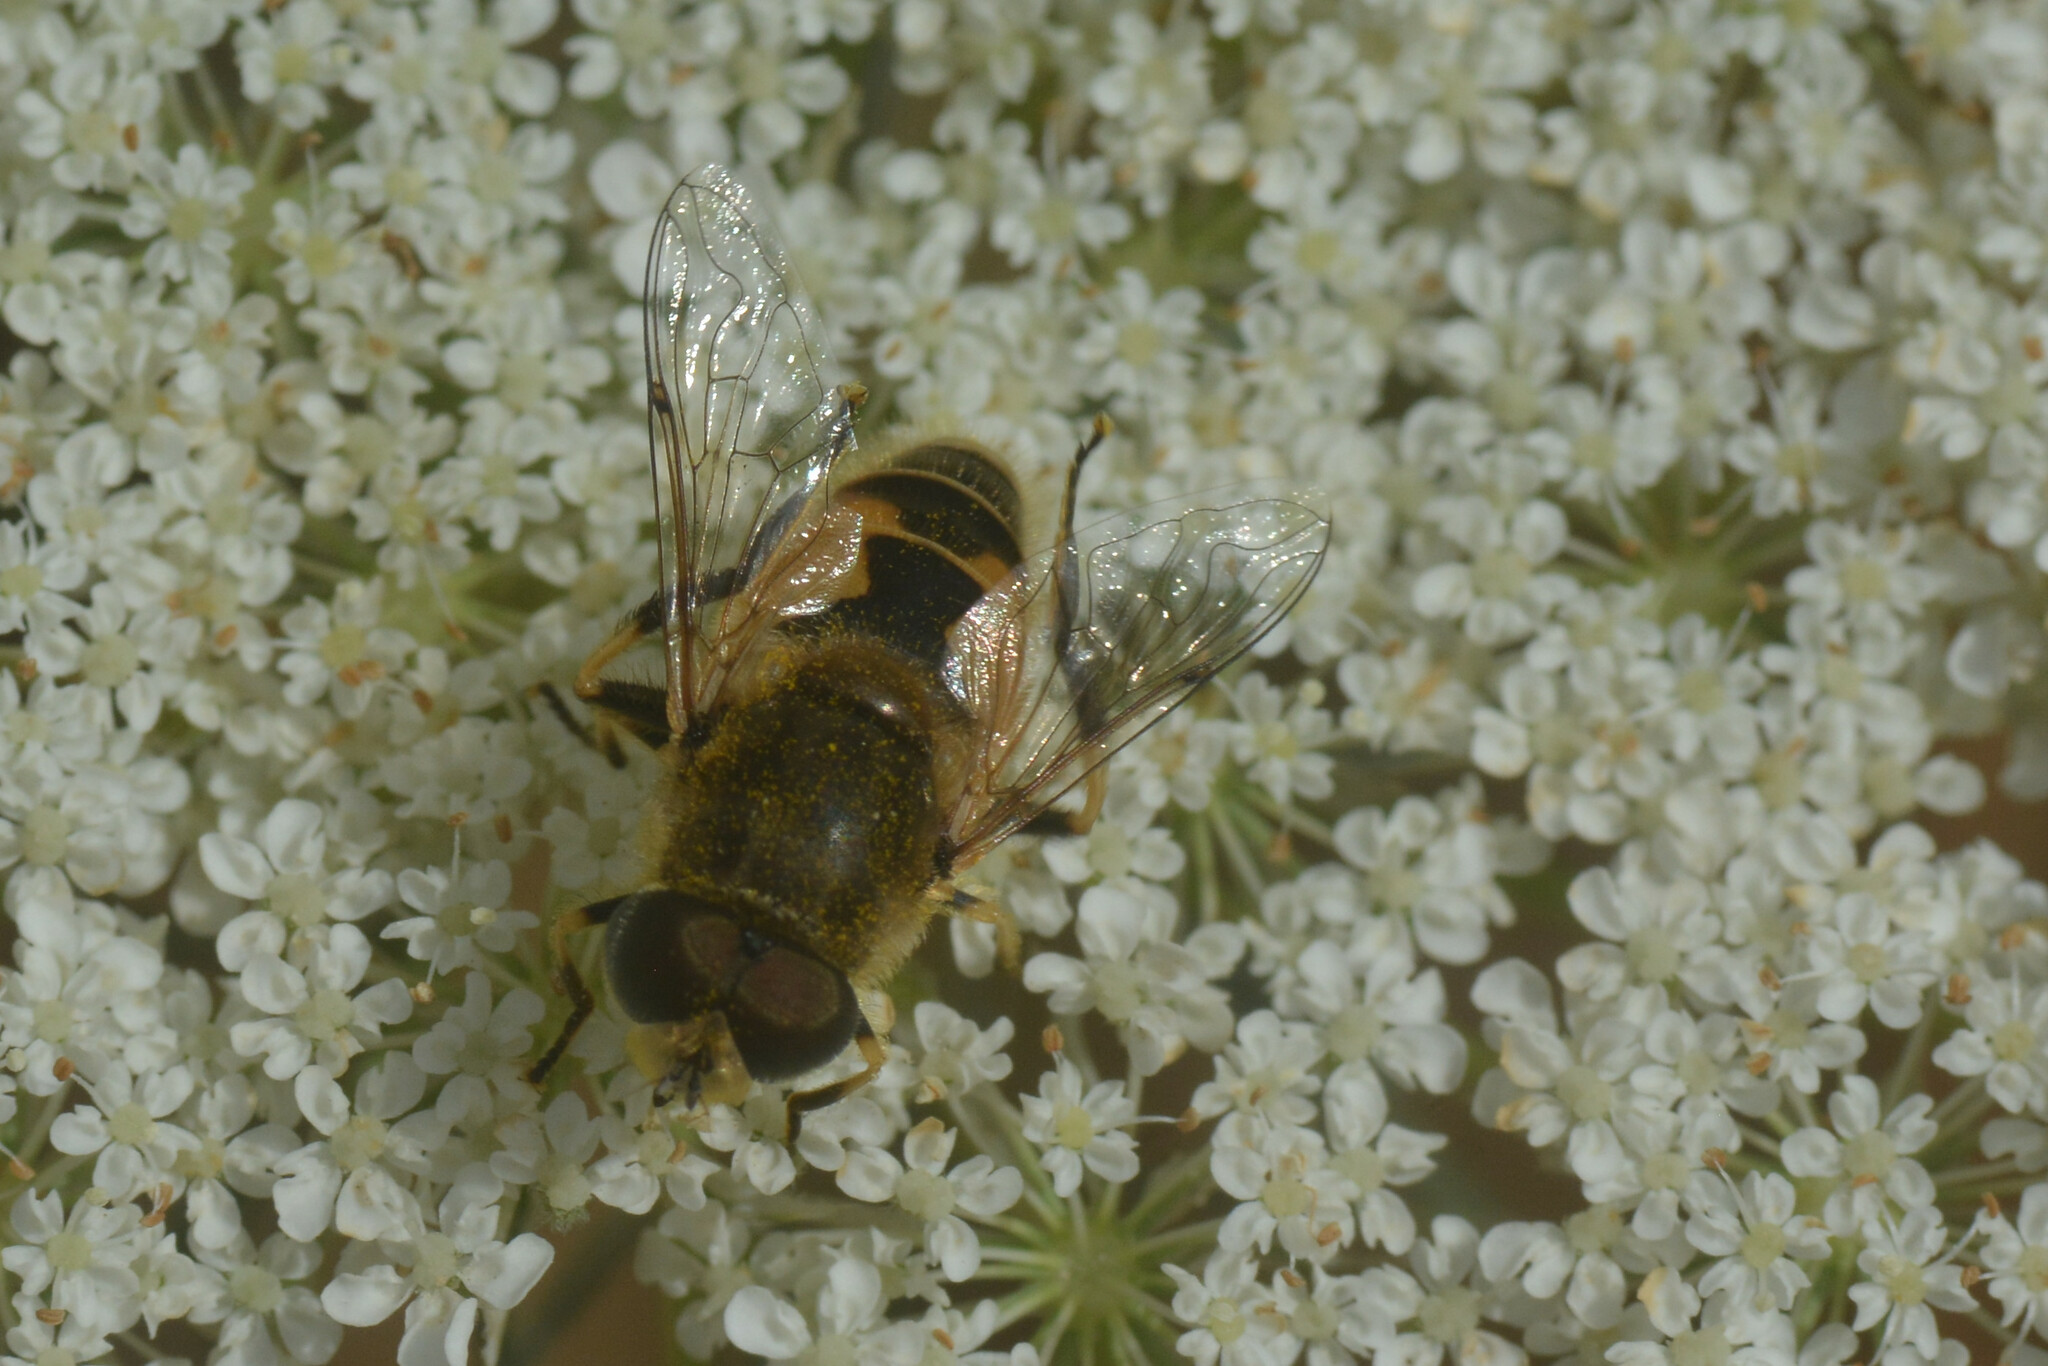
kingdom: Animalia
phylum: Arthropoda
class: Insecta
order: Diptera
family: Syrphidae
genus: Eristalis
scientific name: Eristalis arbustorum
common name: Hover fly
